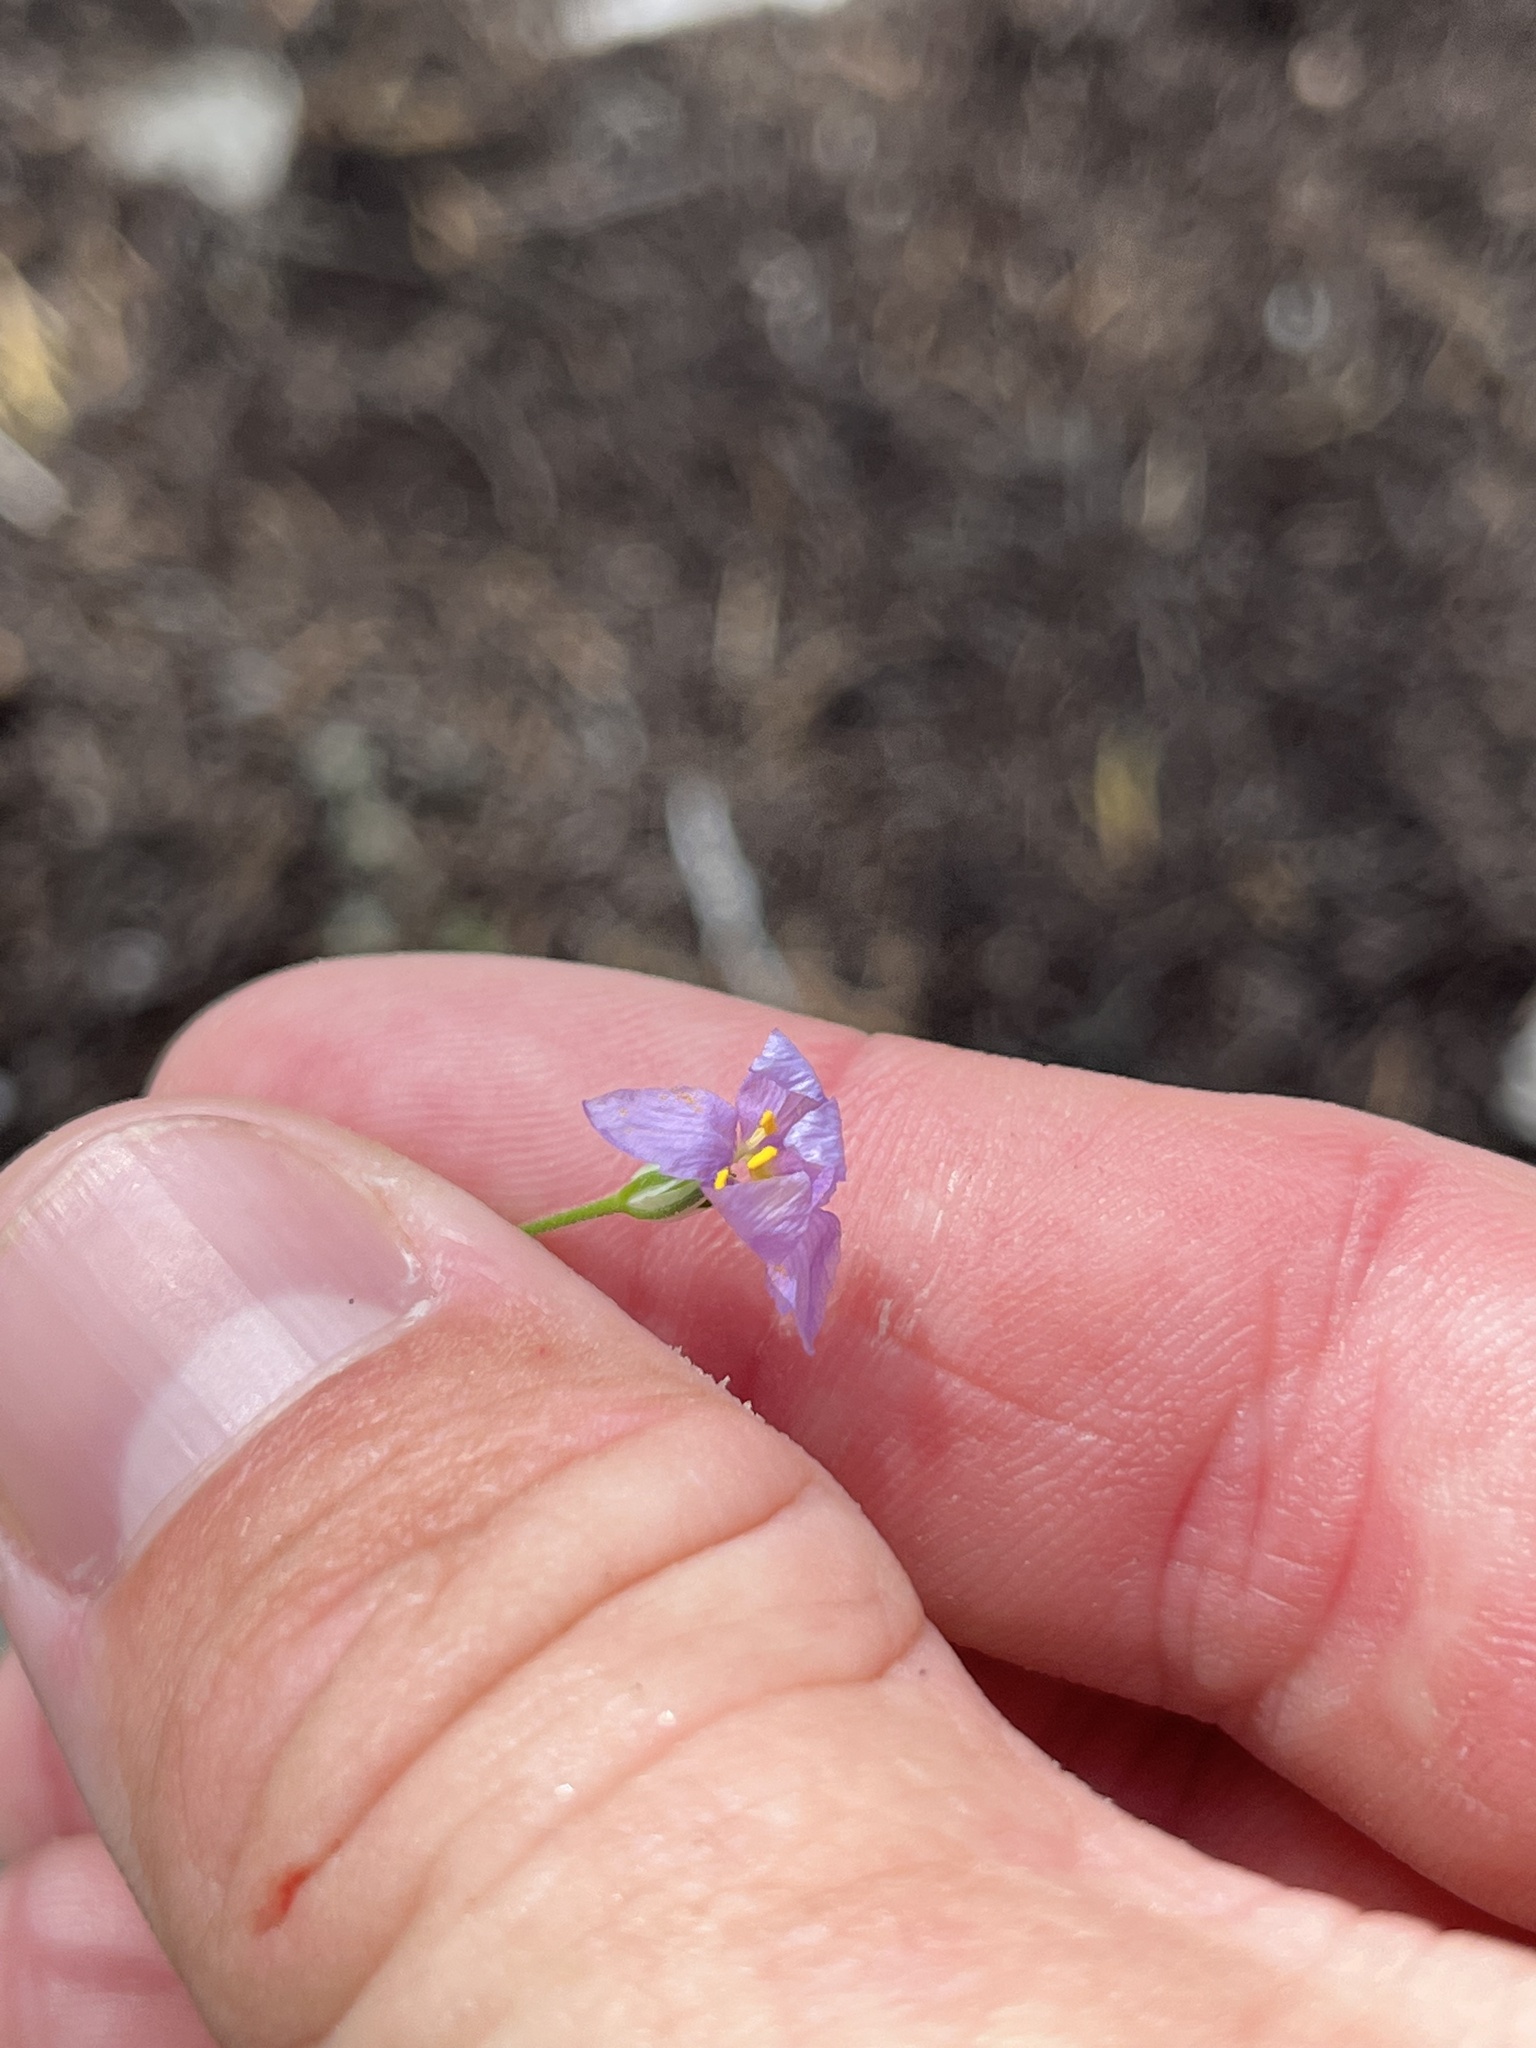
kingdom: Plantae
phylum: Tracheophyta
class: Magnoliopsida
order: Ericales
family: Polemoniaceae
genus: Giliastrum
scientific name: Giliastrum incisum
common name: Splitleaf gilia
